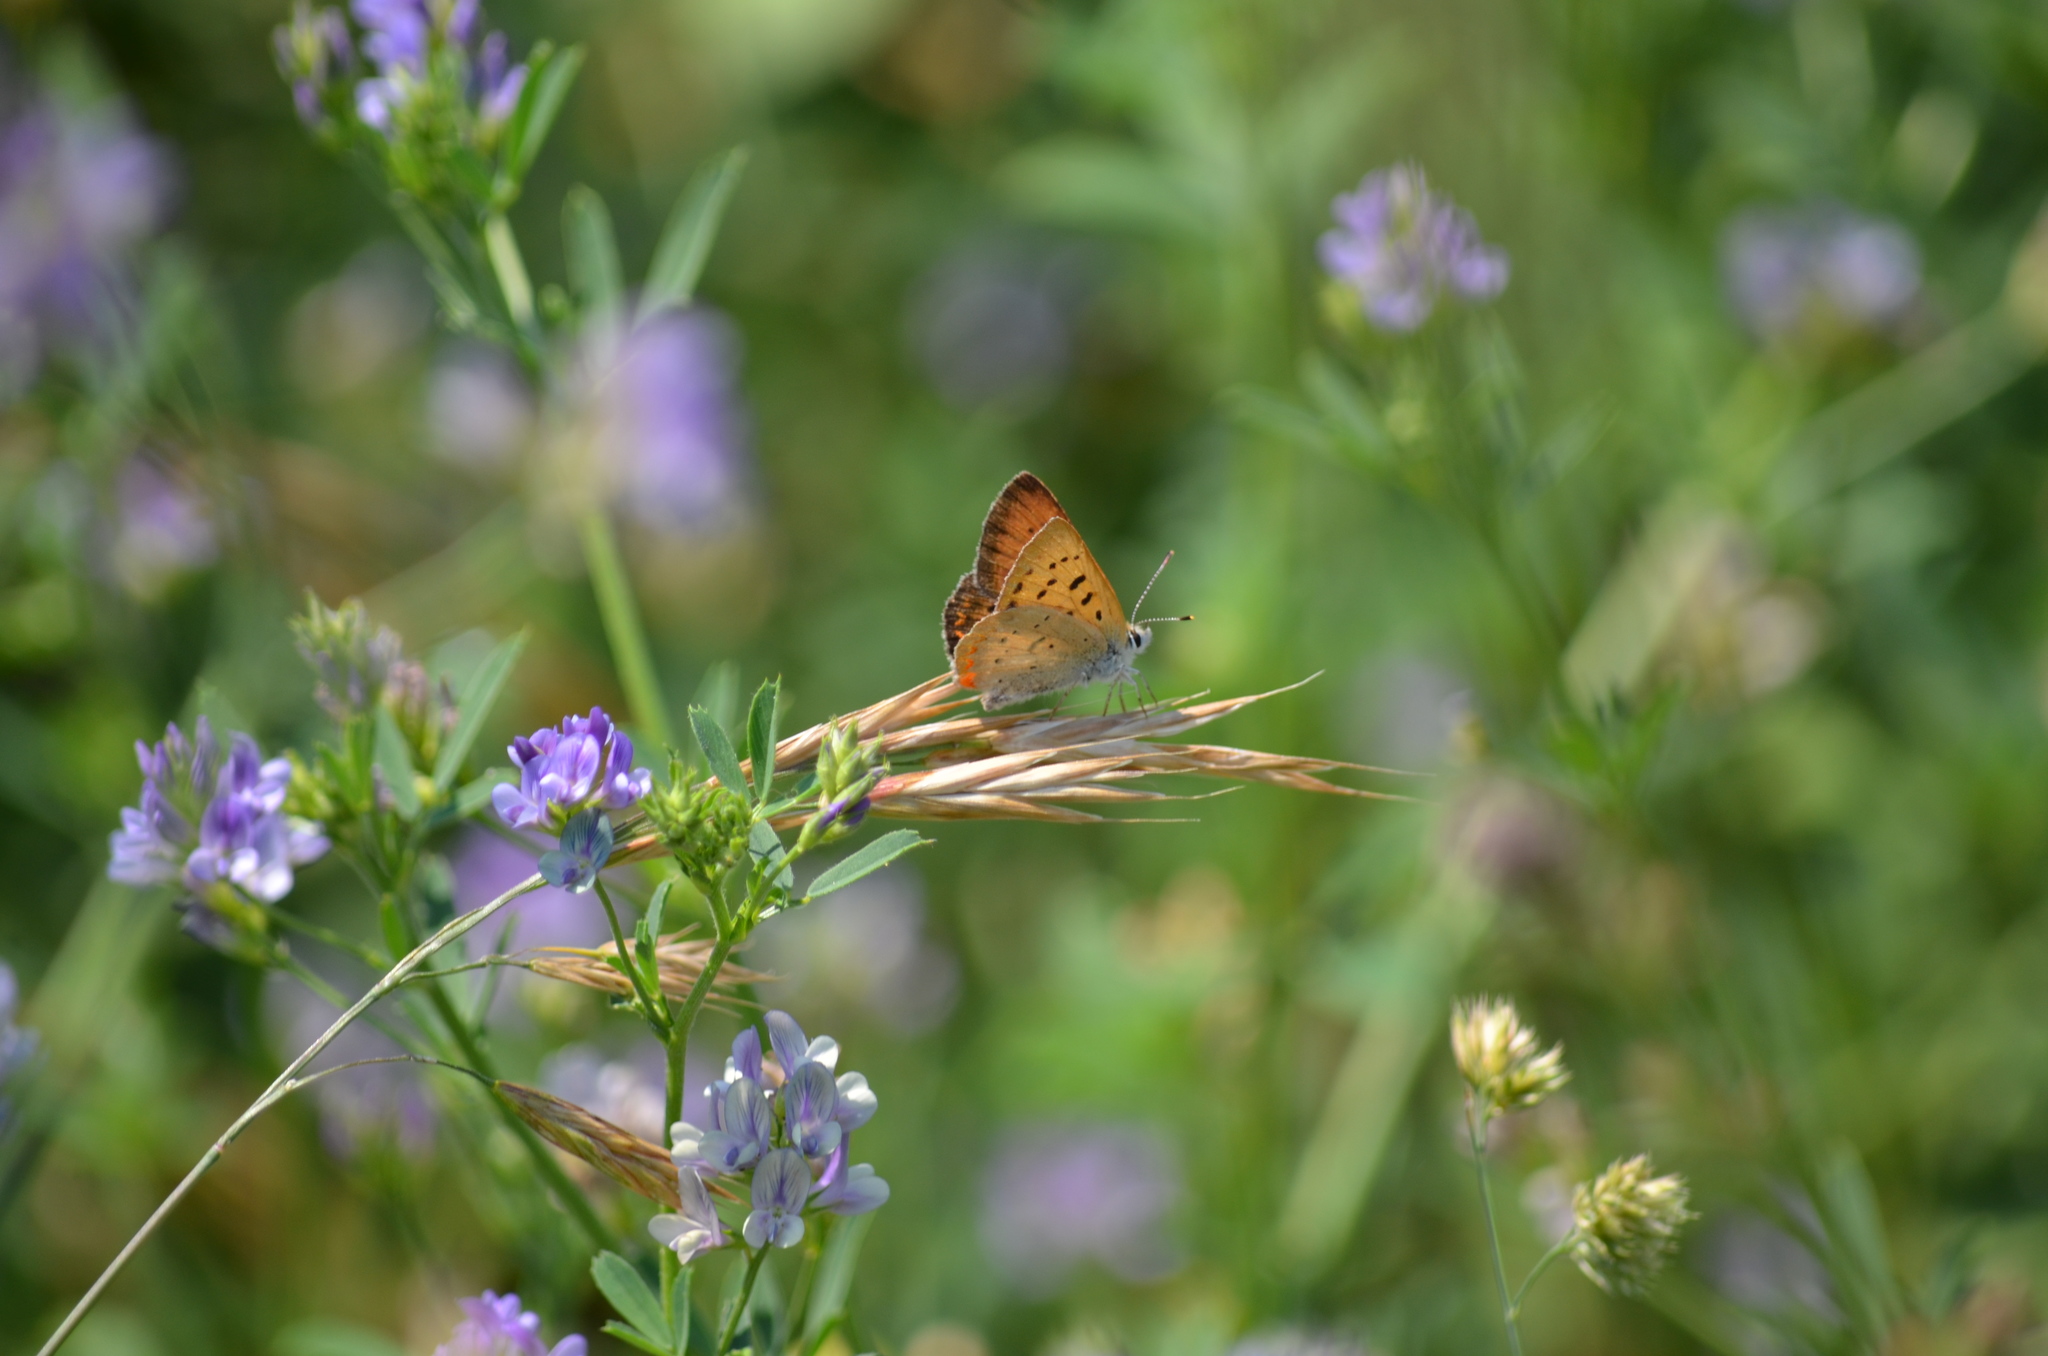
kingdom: Animalia
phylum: Arthropoda
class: Insecta
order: Lepidoptera
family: Lycaenidae
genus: Tharsalea
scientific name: Tharsalea helloides
